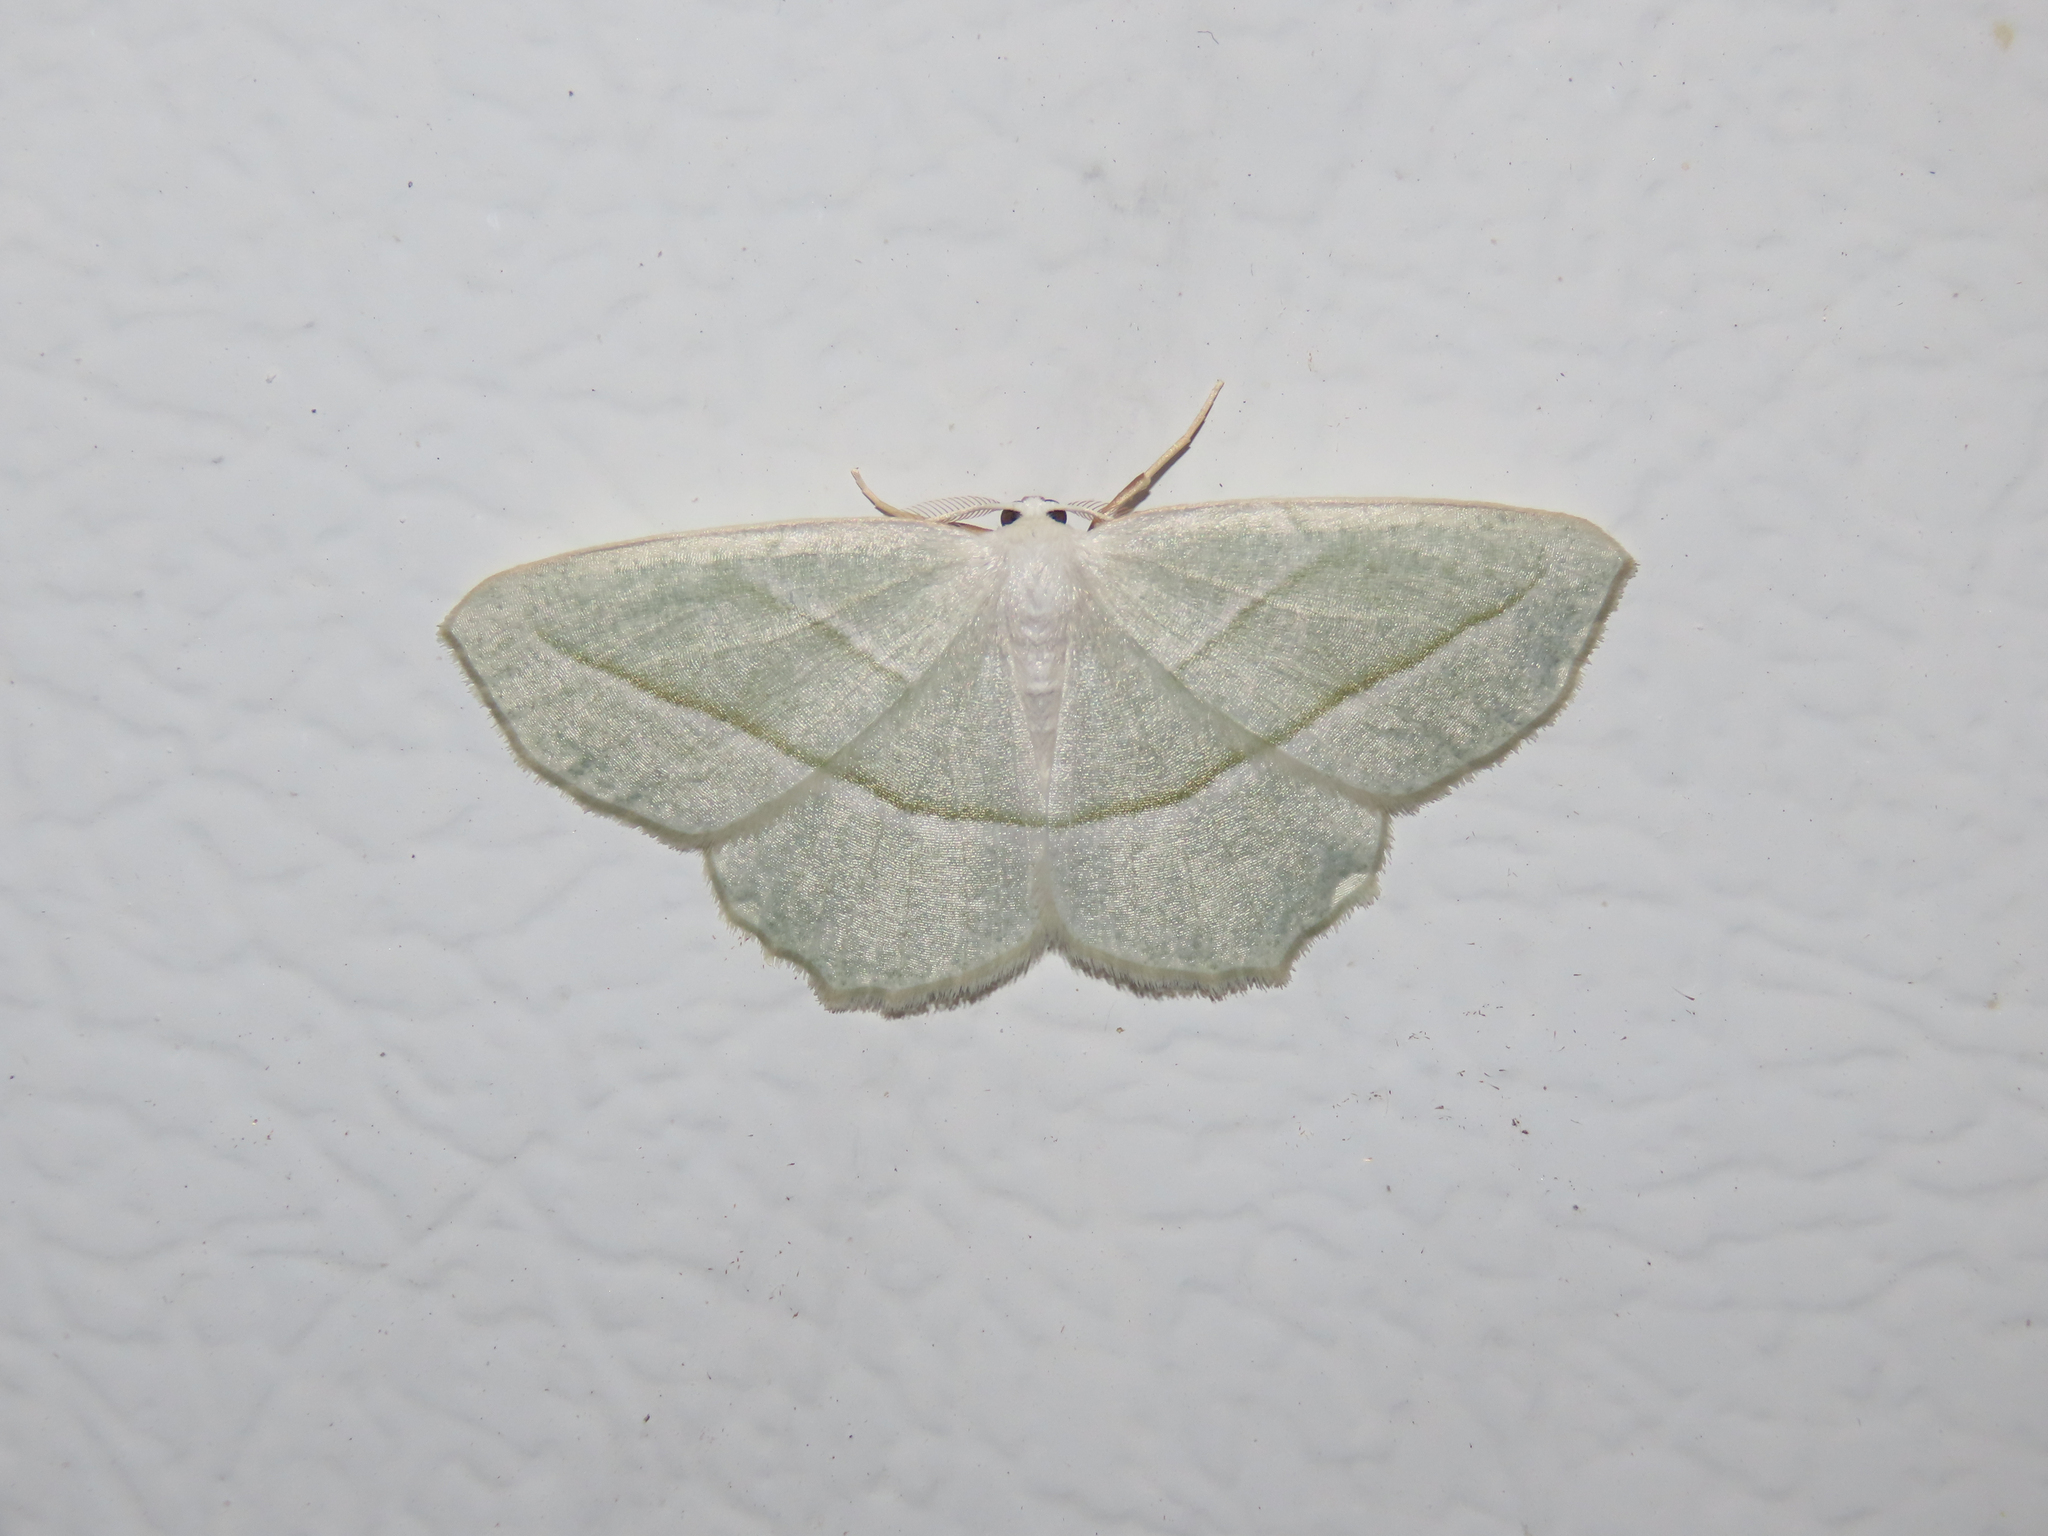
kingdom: Animalia
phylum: Arthropoda
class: Insecta
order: Lepidoptera
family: Geometridae
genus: Campaea
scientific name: Campaea perlata
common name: Fringed looper
